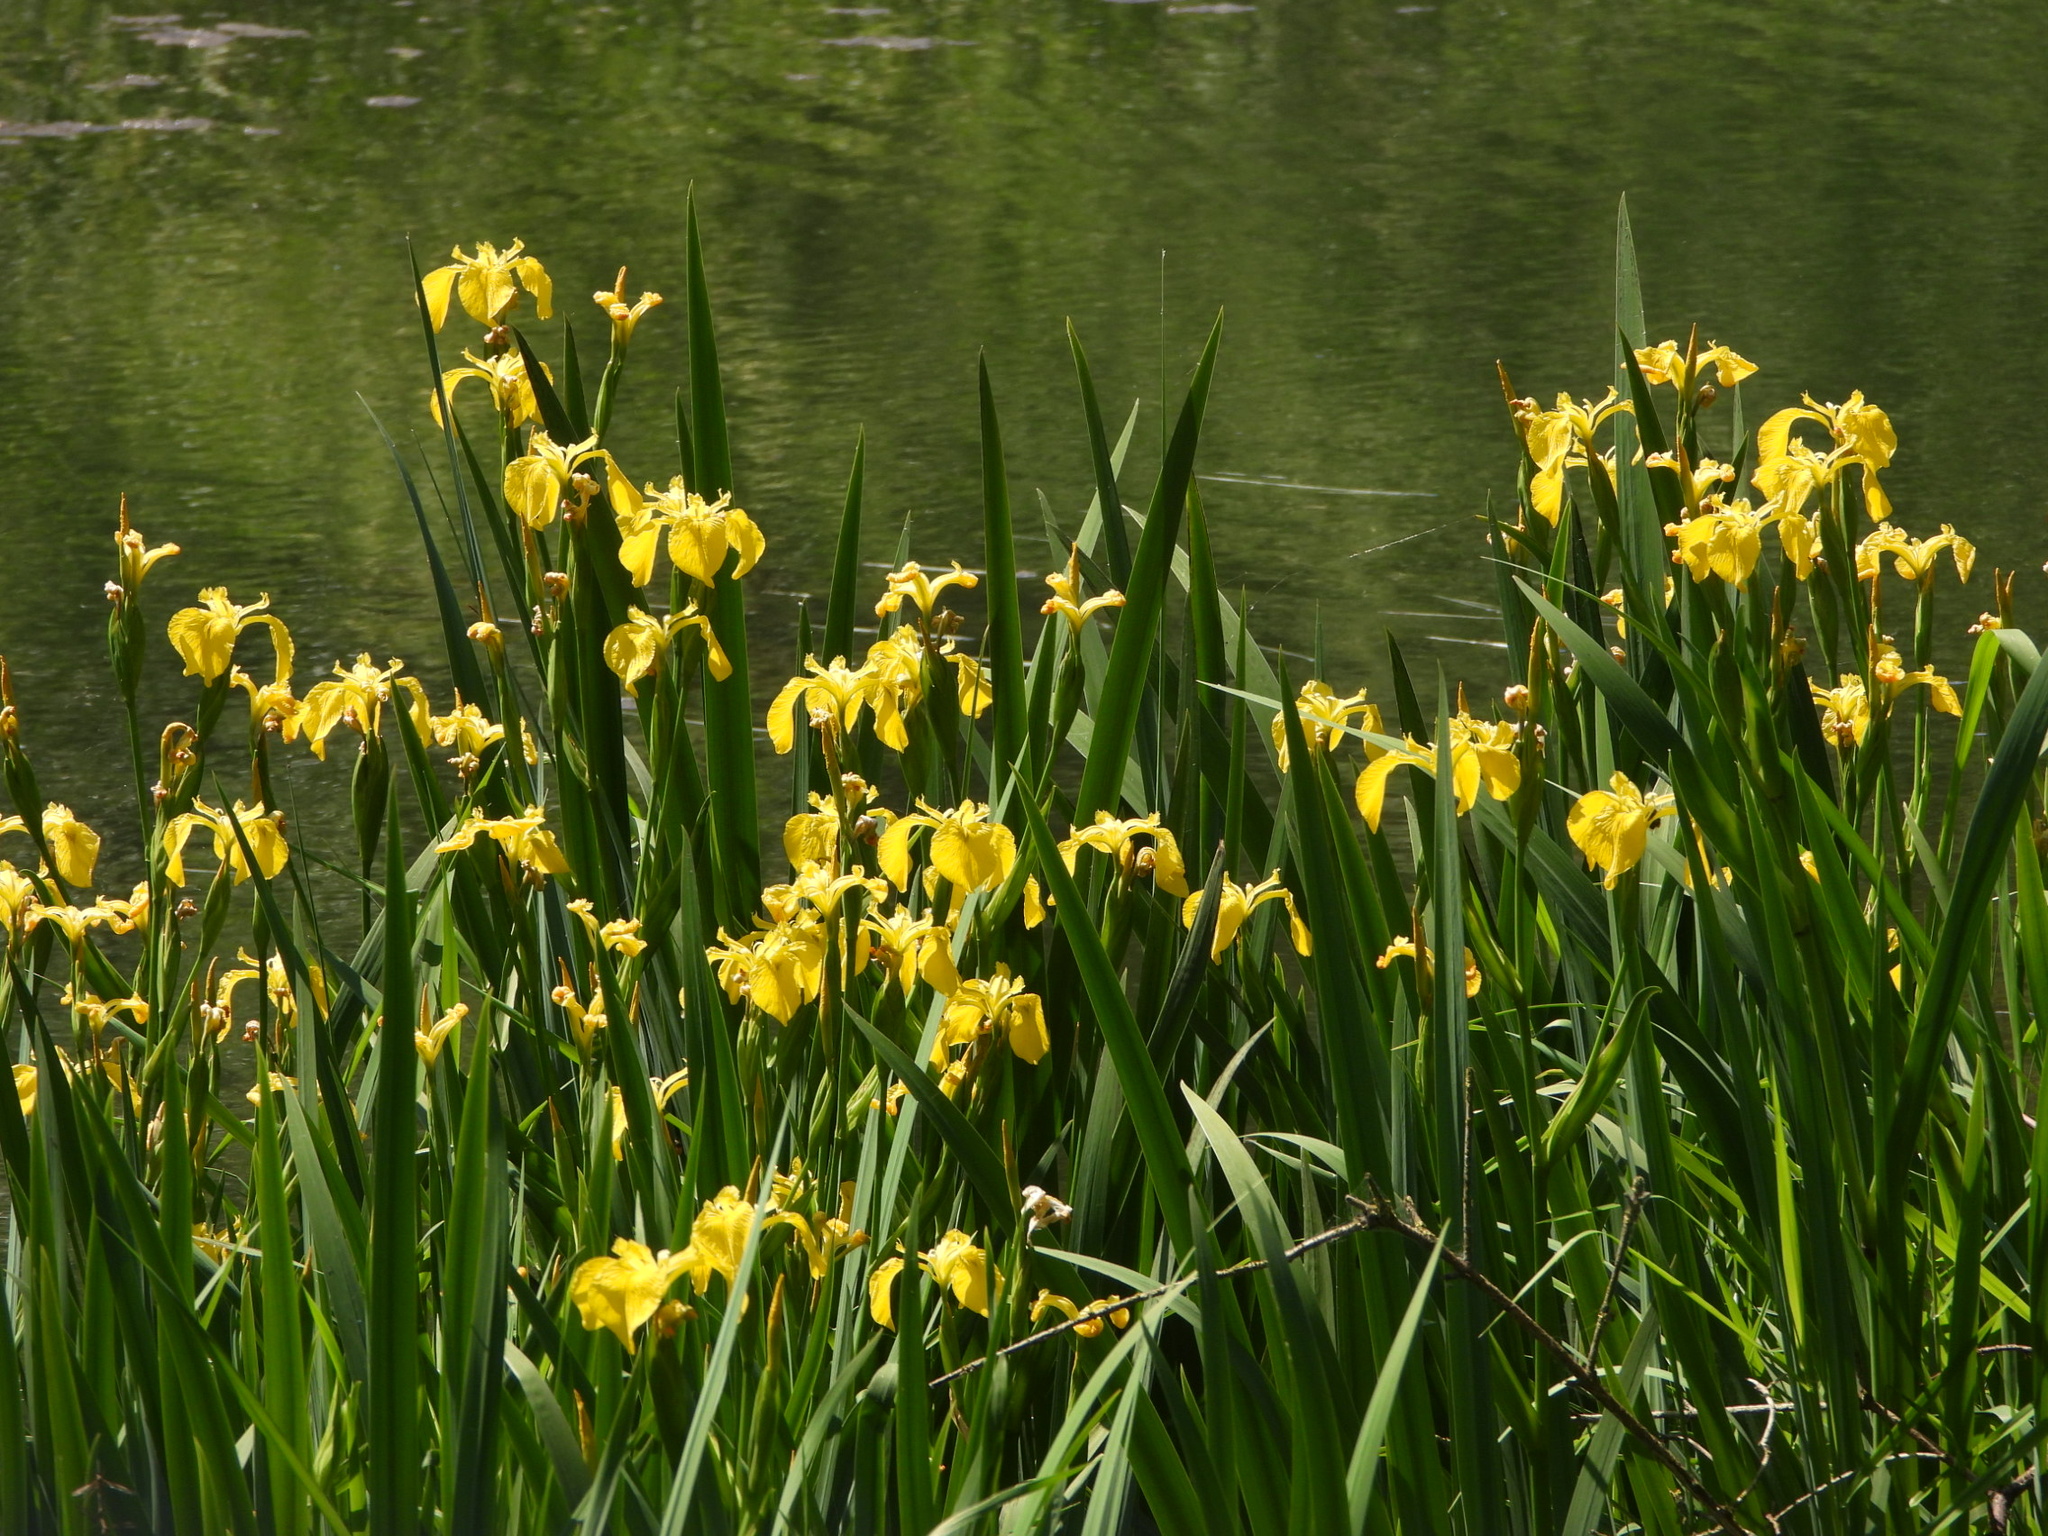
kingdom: Plantae
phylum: Tracheophyta
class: Liliopsida
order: Asparagales
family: Iridaceae
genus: Iris
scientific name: Iris pseudacorus
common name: Yellow flag
